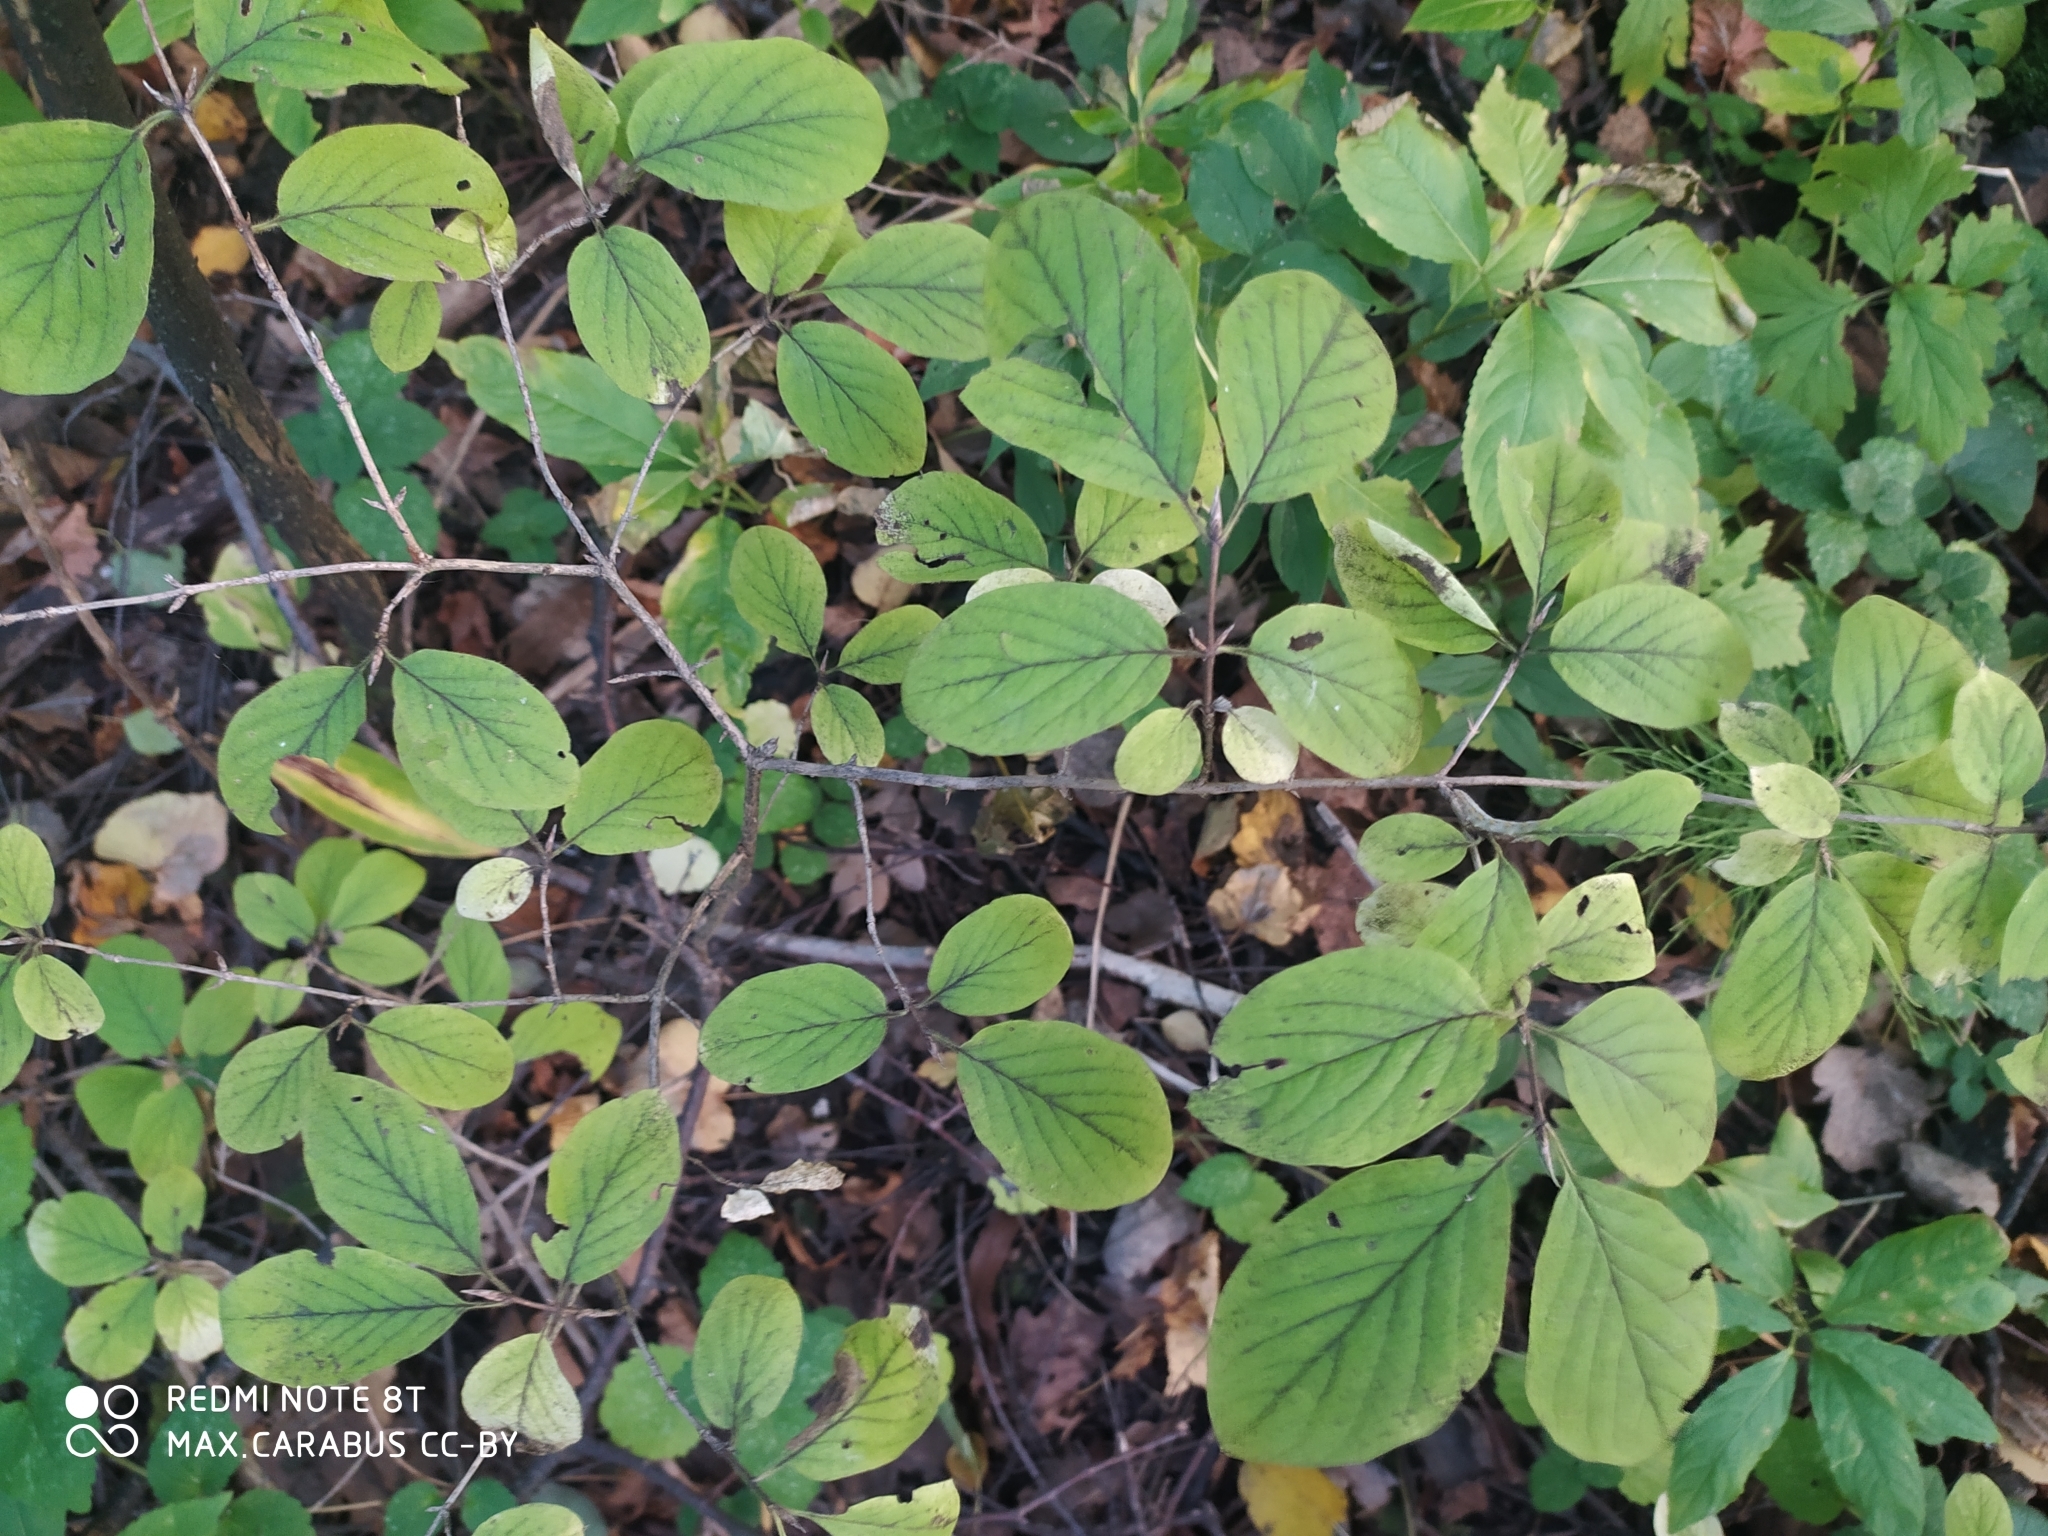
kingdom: Plantae
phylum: Tracheophyta
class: Magnoliopsida
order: Dipsacales
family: Caprifoliaceae
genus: Lonicera
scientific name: Lonicera xylosteum
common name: Fly honeysuckle
